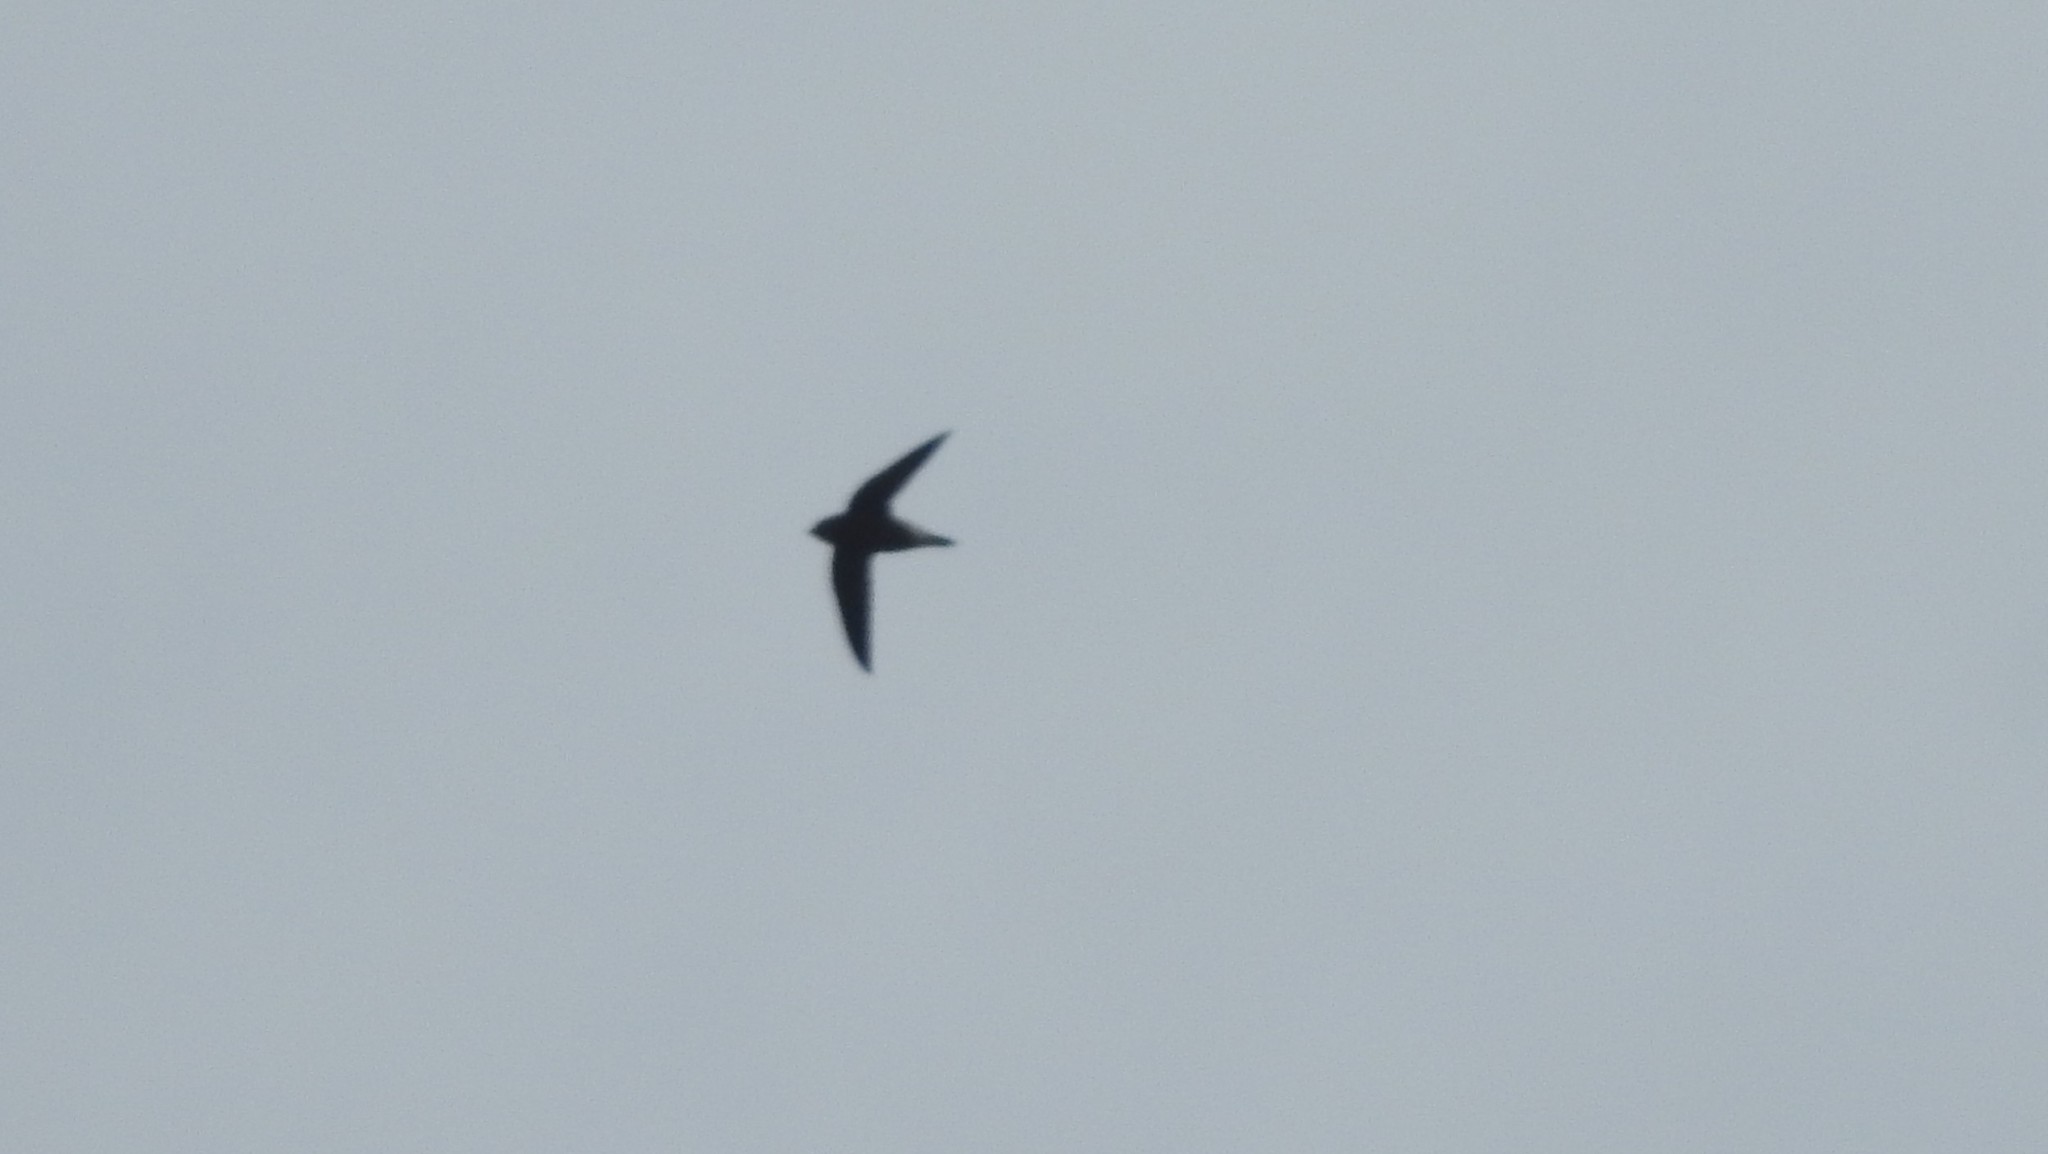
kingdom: Animalia
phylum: Chordata
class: Aves
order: Apodiformes
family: Apodidae
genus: Hirundapus
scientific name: Hirundapus giganteus
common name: Brown-backed needletail
